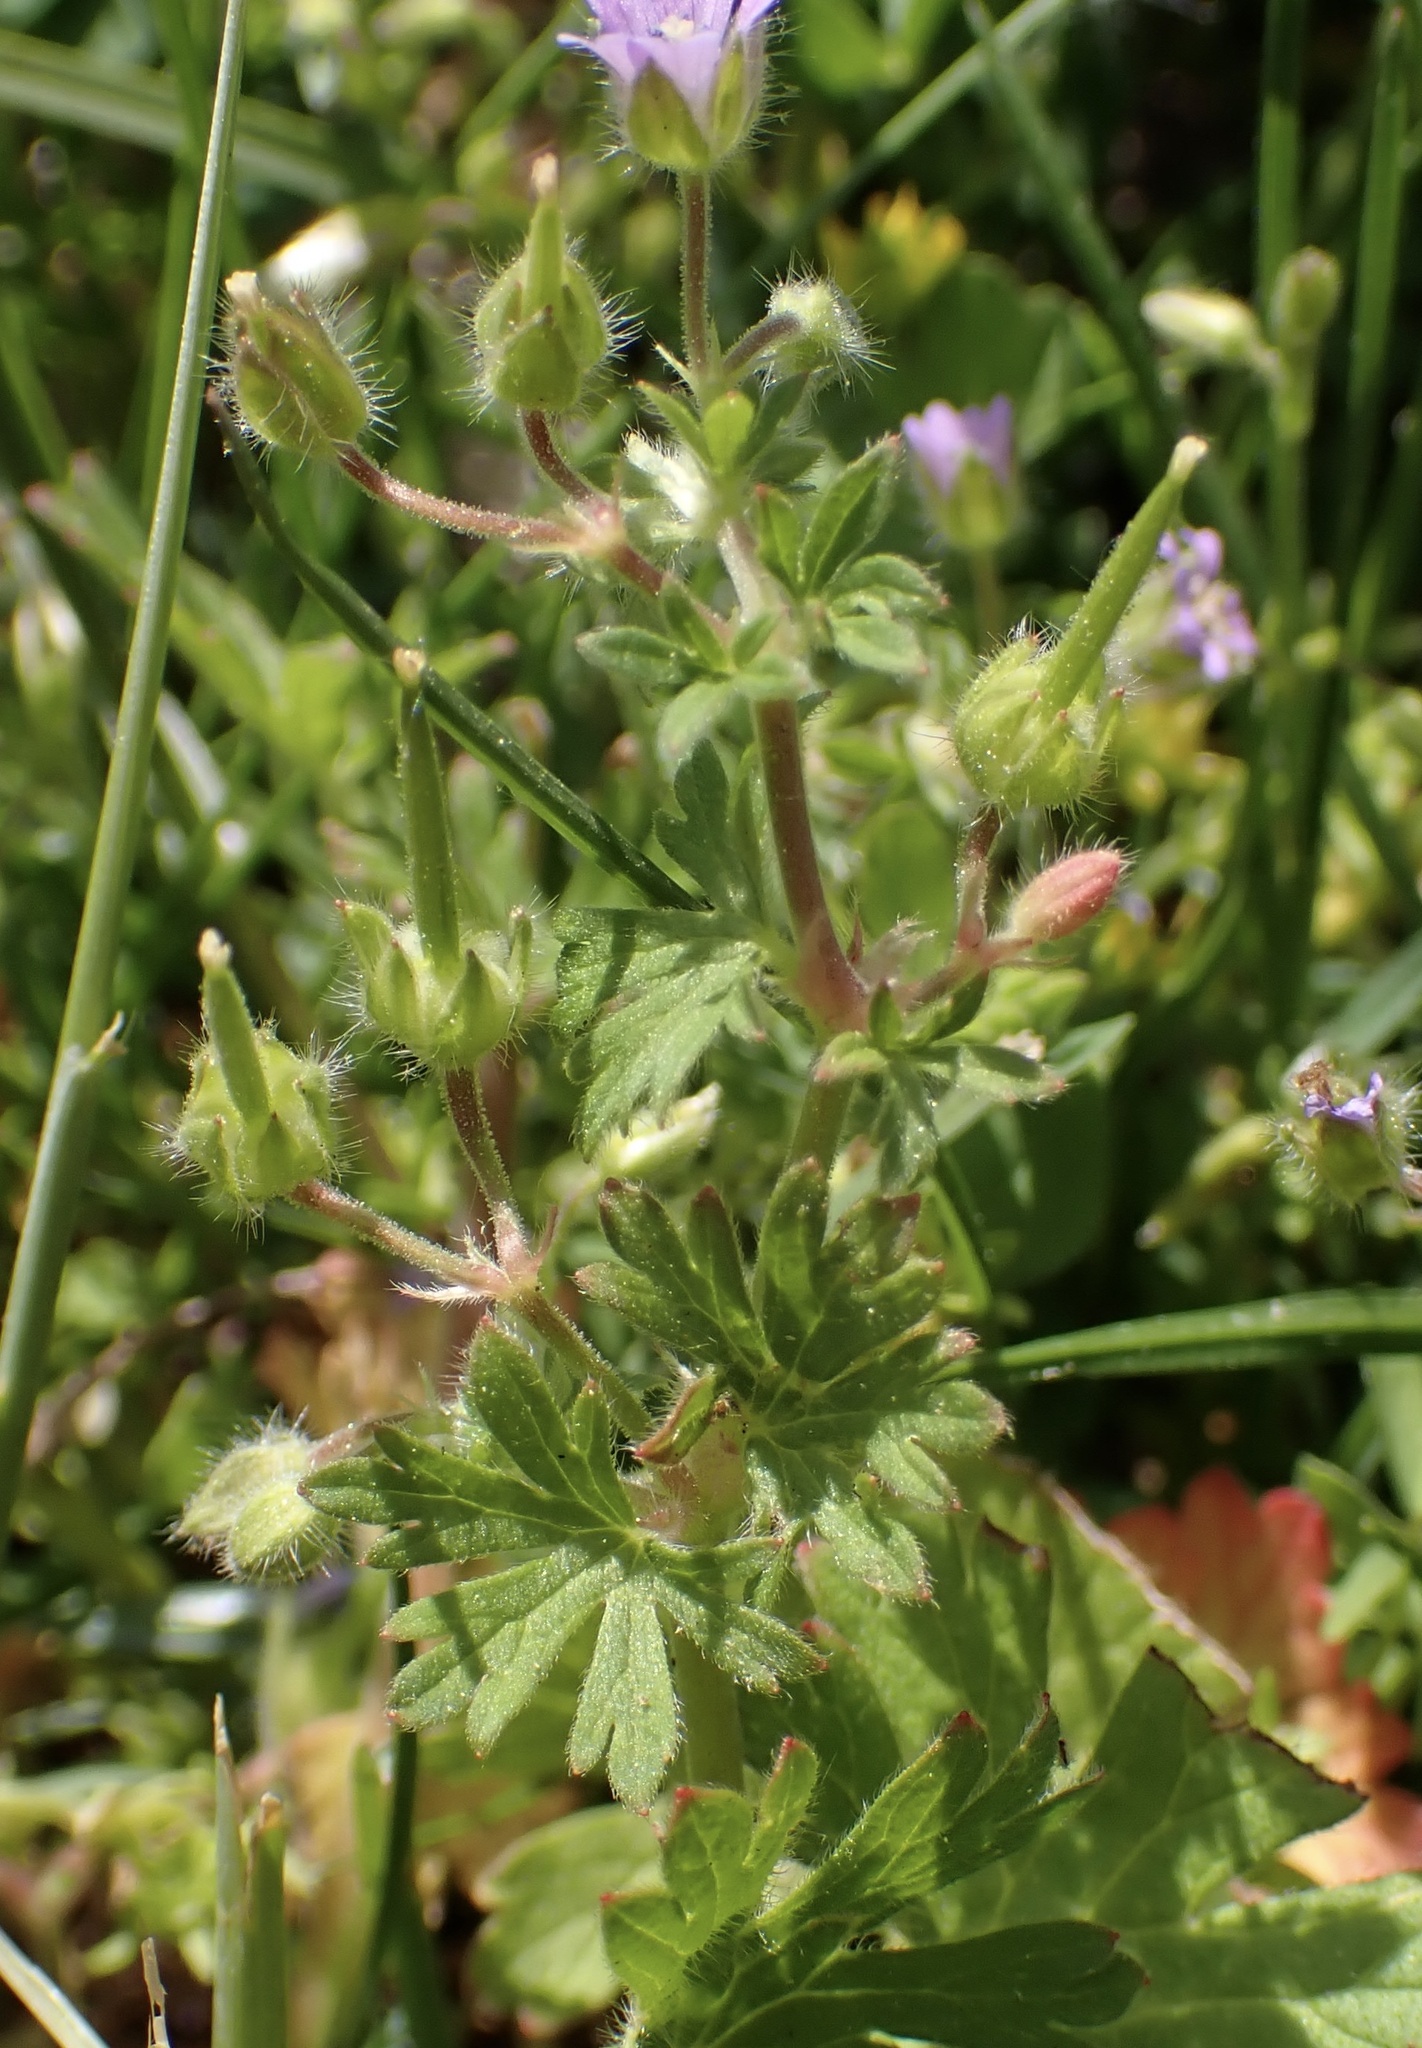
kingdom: Plantae
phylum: Tracheophyta
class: Magnoliopsida
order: Geraniales
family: Geraniaceae
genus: Geranium
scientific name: Geranium pusillum
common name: Small geranium
